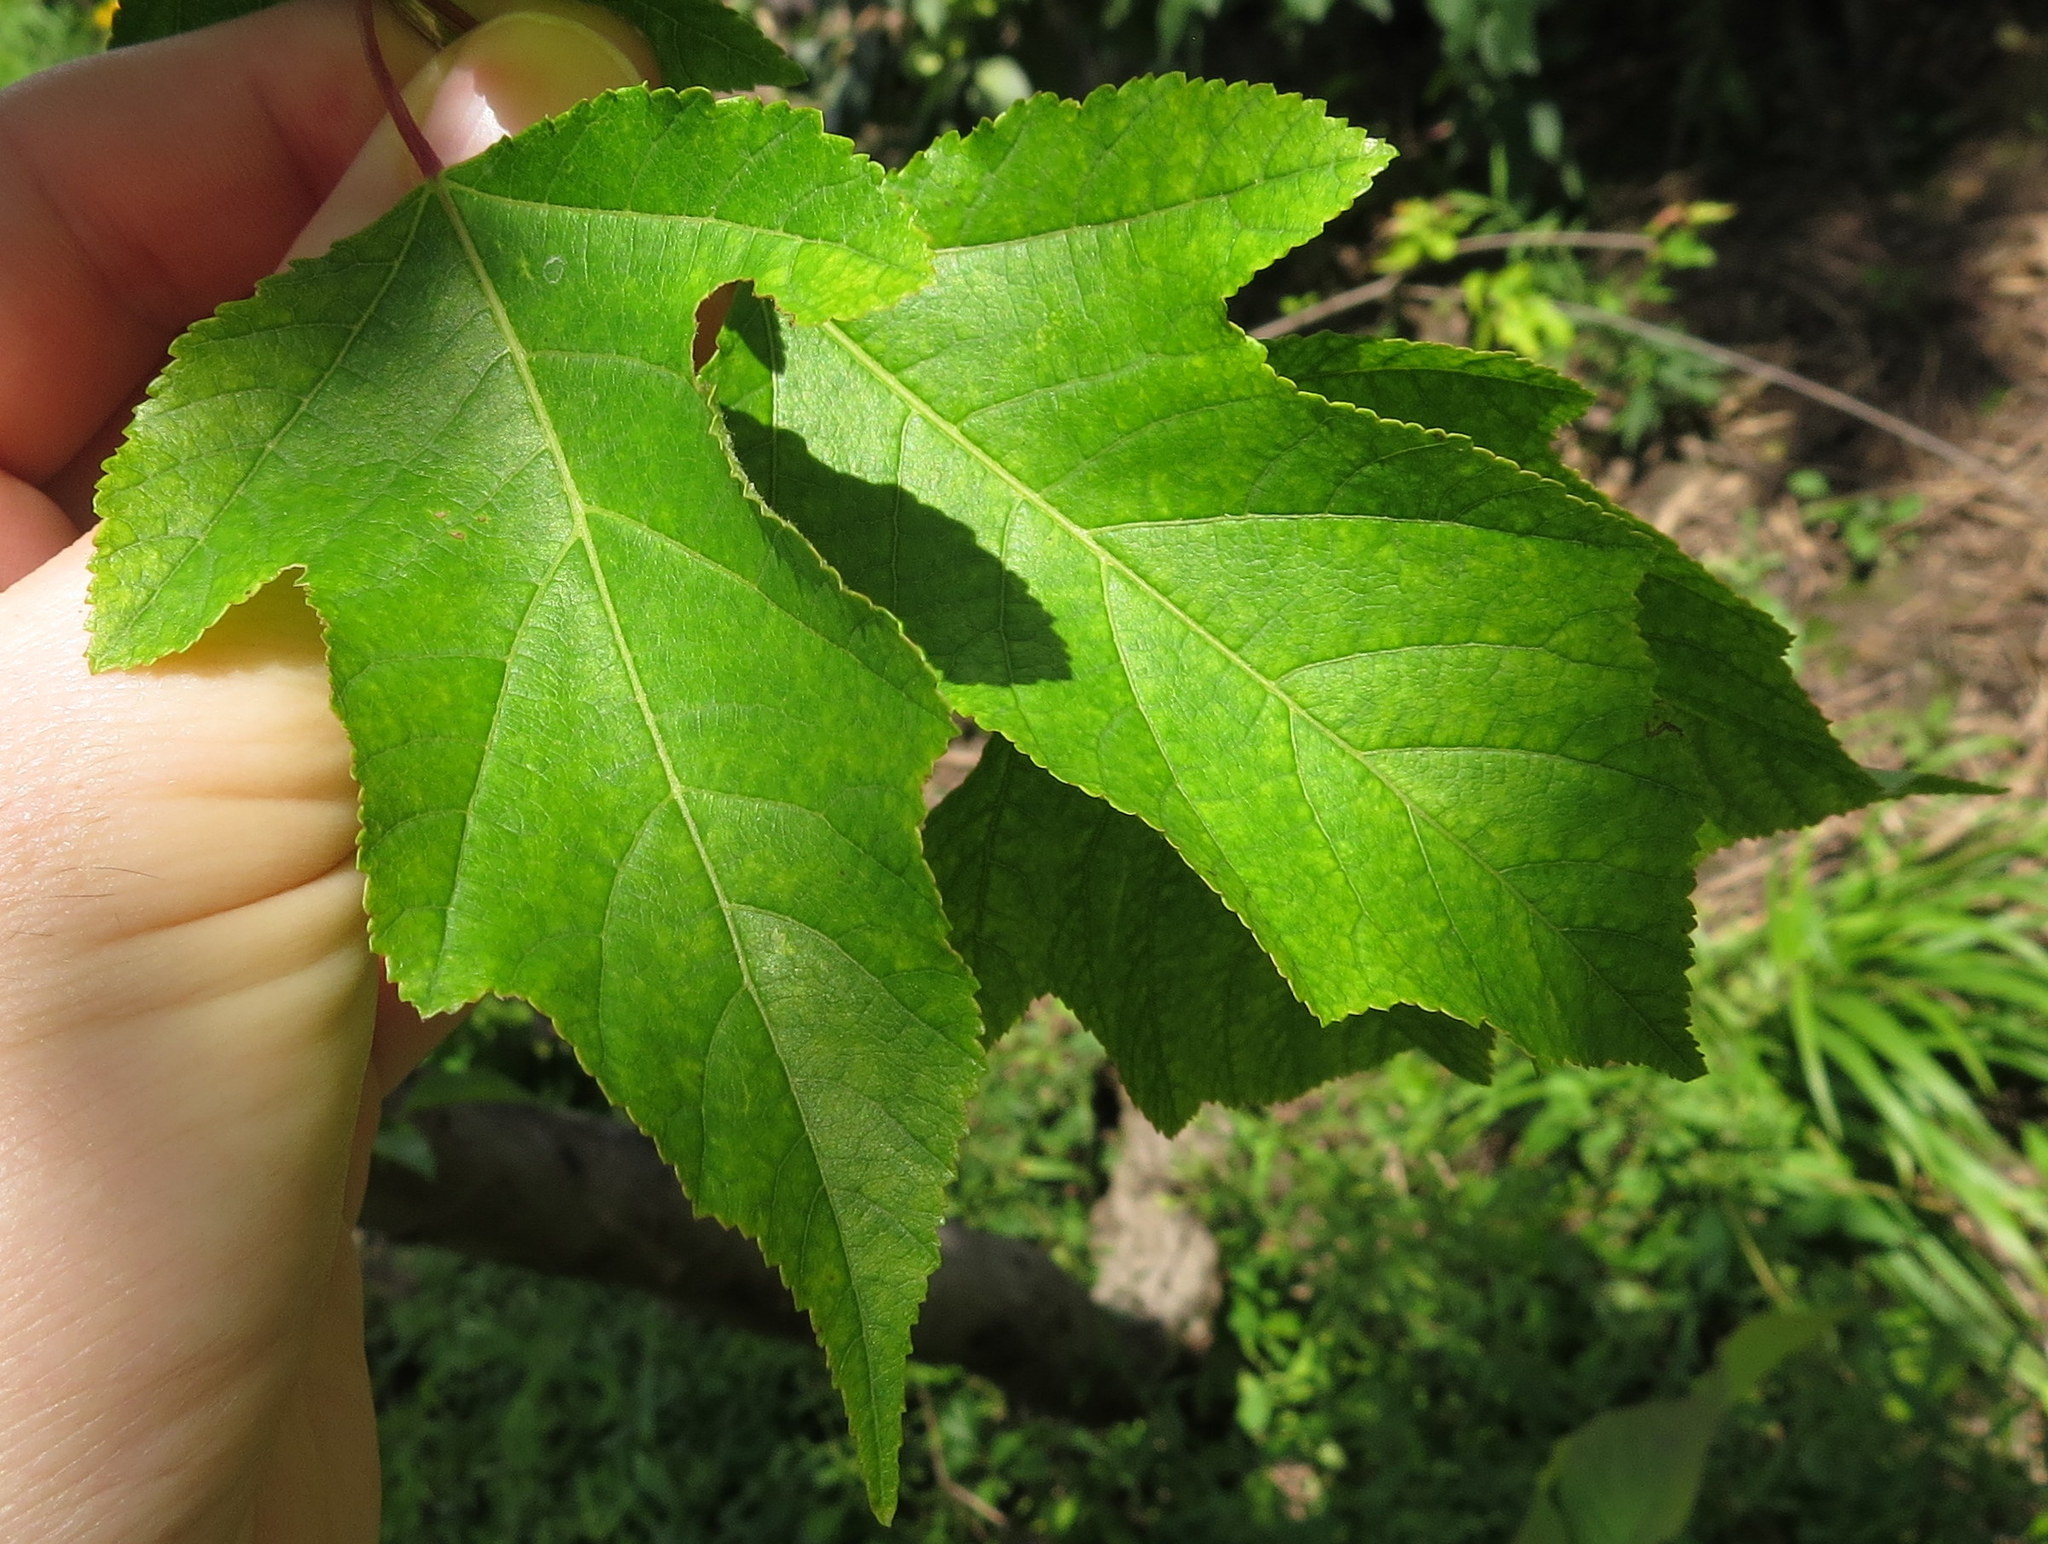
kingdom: Plantae
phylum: Tracheophyta
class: Magnoliopsida
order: Sapindales
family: Sapindaceae
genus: Acer
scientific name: Acer tataricum
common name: Tartar maple
